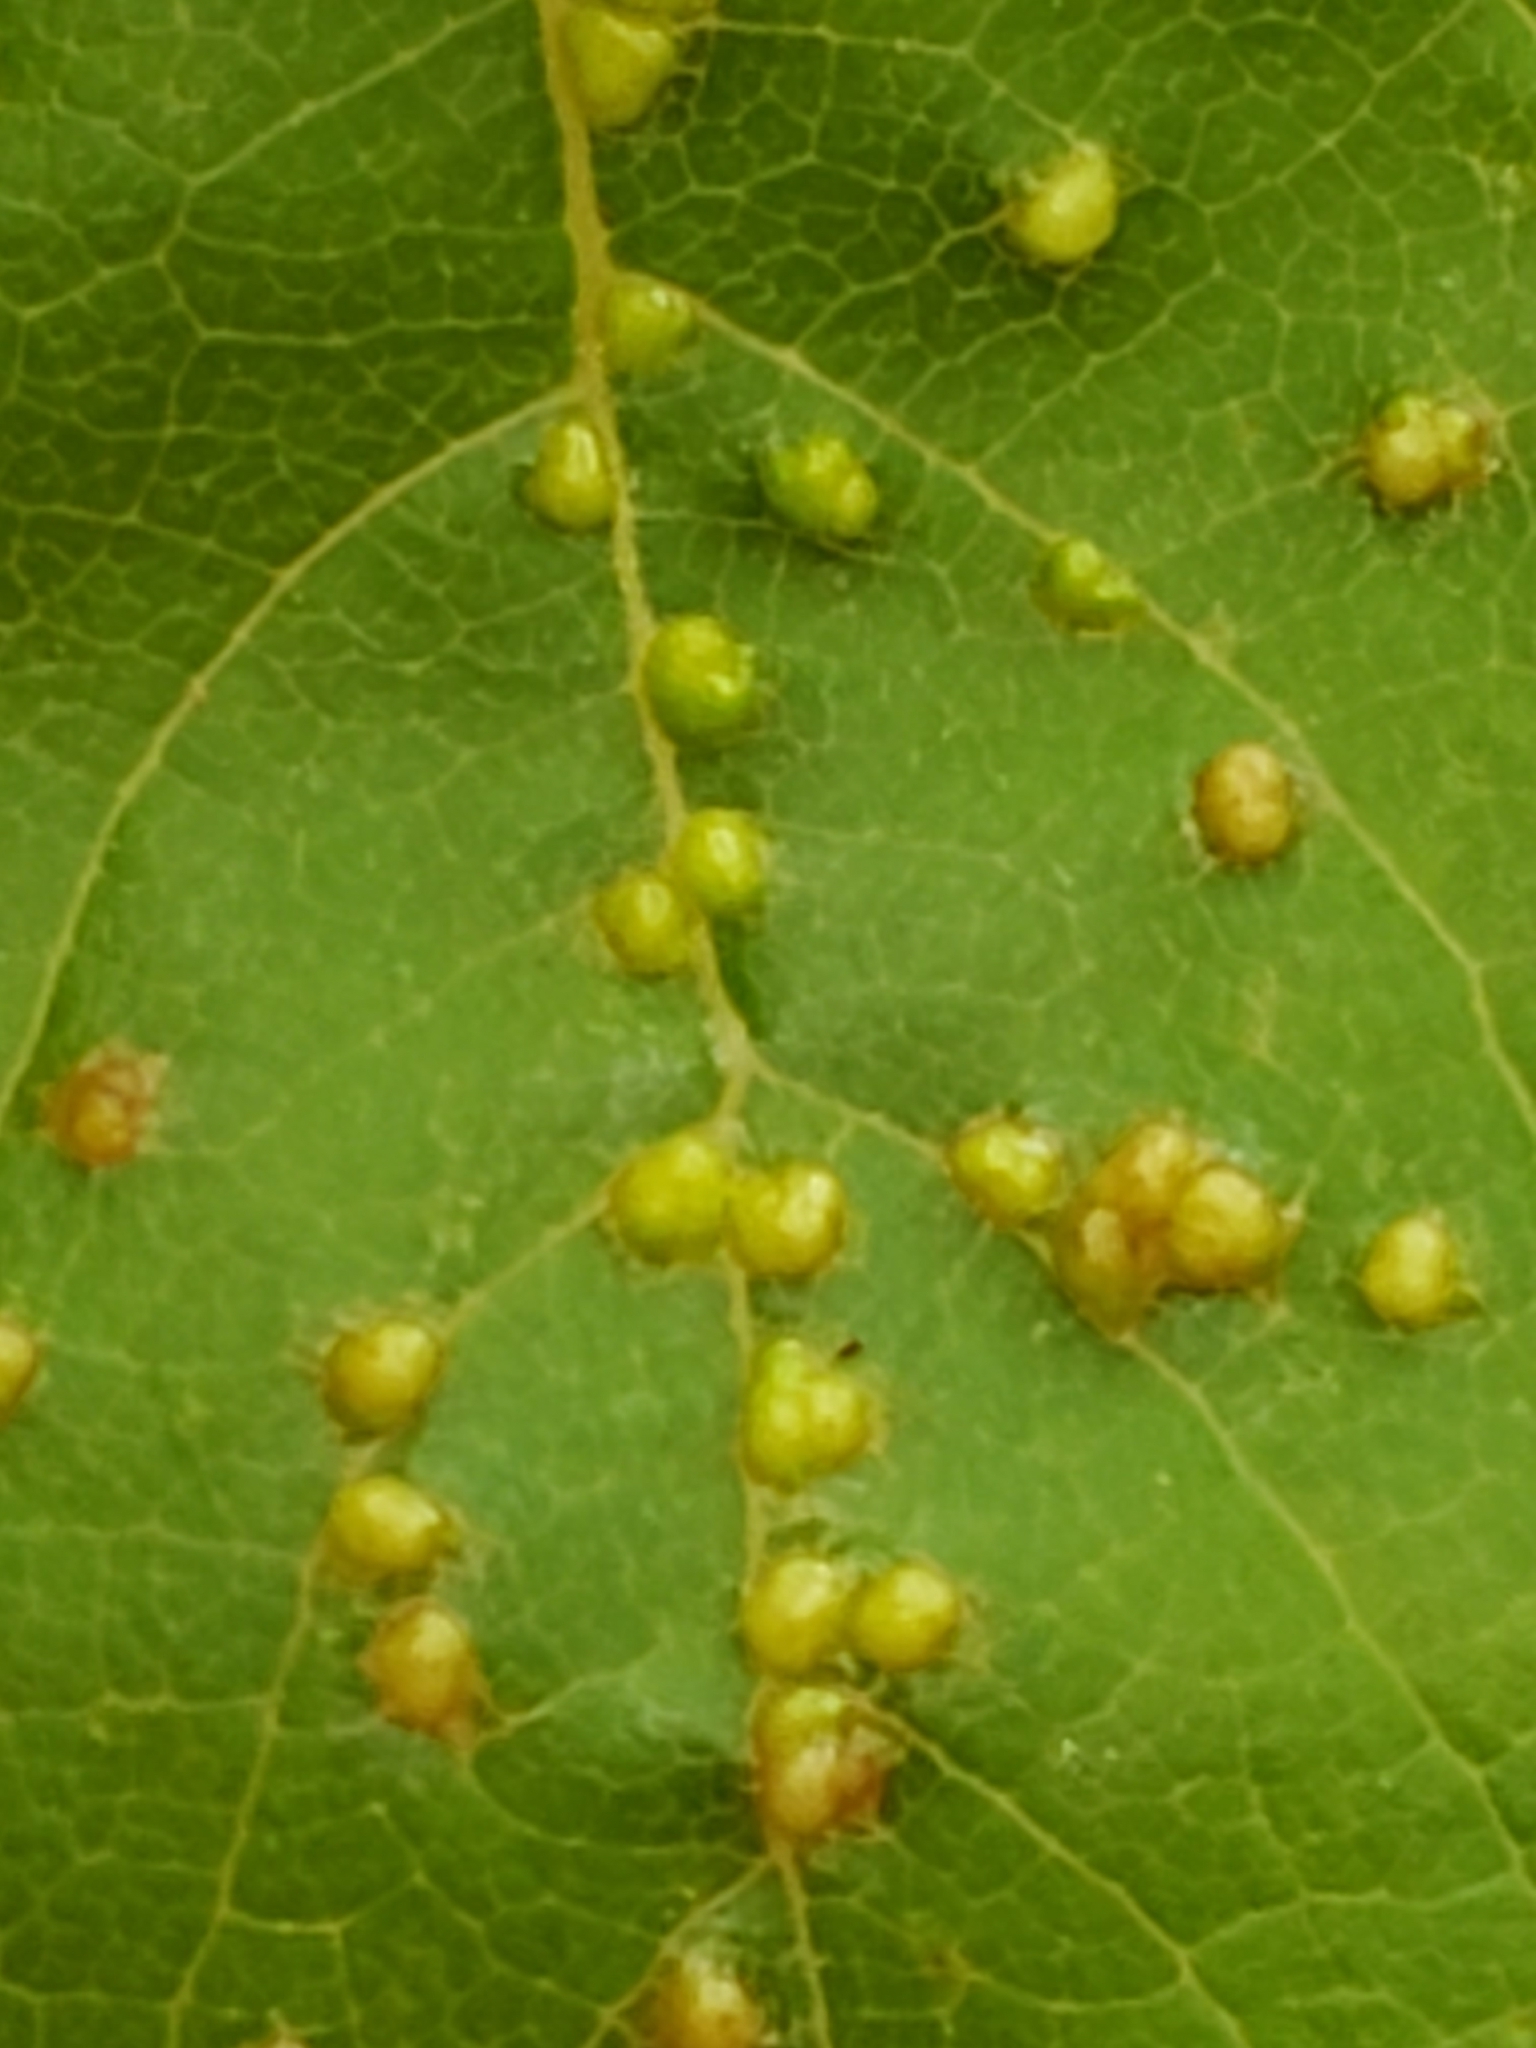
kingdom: Animalia
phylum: Arthropoda
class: Arachnida
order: Trombidiformes
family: Eriophyidae
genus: Aceria
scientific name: Aceria
